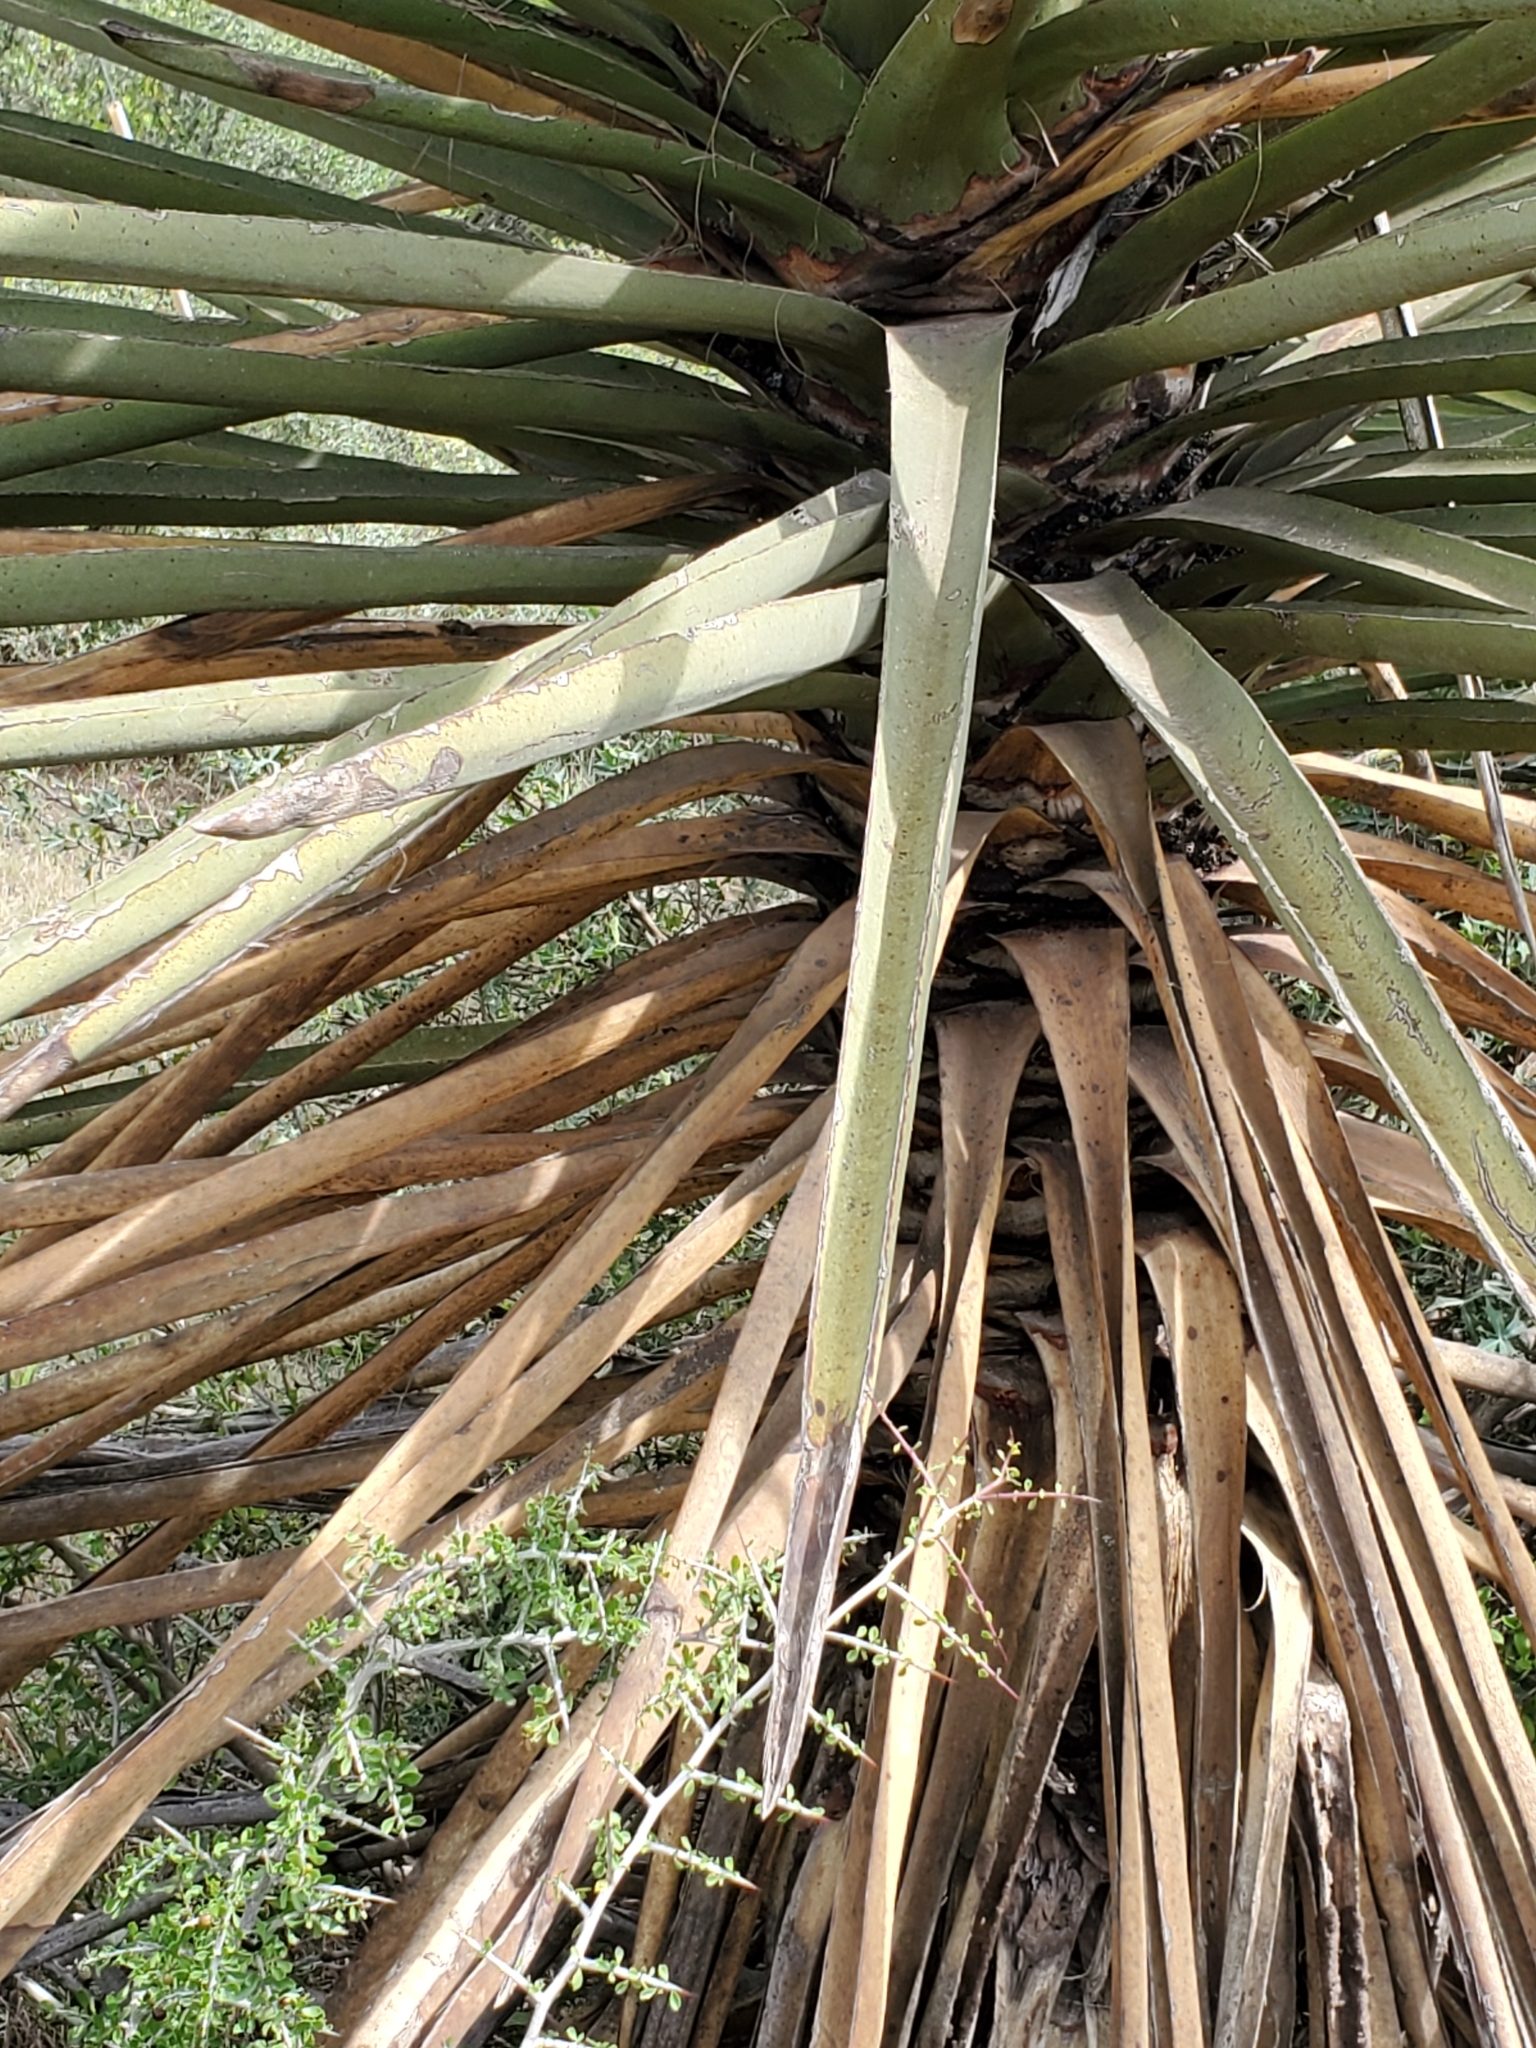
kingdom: Plantae
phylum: Tracheophyta
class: Liliopsida
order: Asparagales
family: Asparagaceae
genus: Yucca
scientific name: Yucca treculiana
